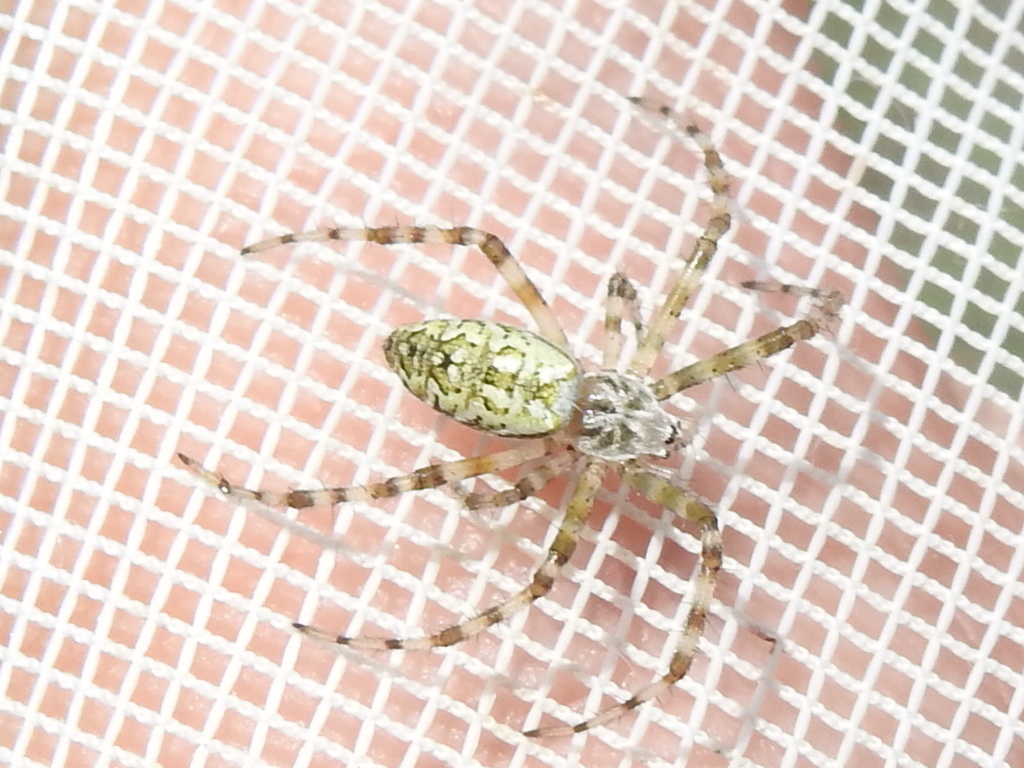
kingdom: Animalia
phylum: Arthropoda
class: Arachnida
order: Araneae
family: Araneidae
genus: Argiope
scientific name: Argiope aurantia
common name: Orb weavers
